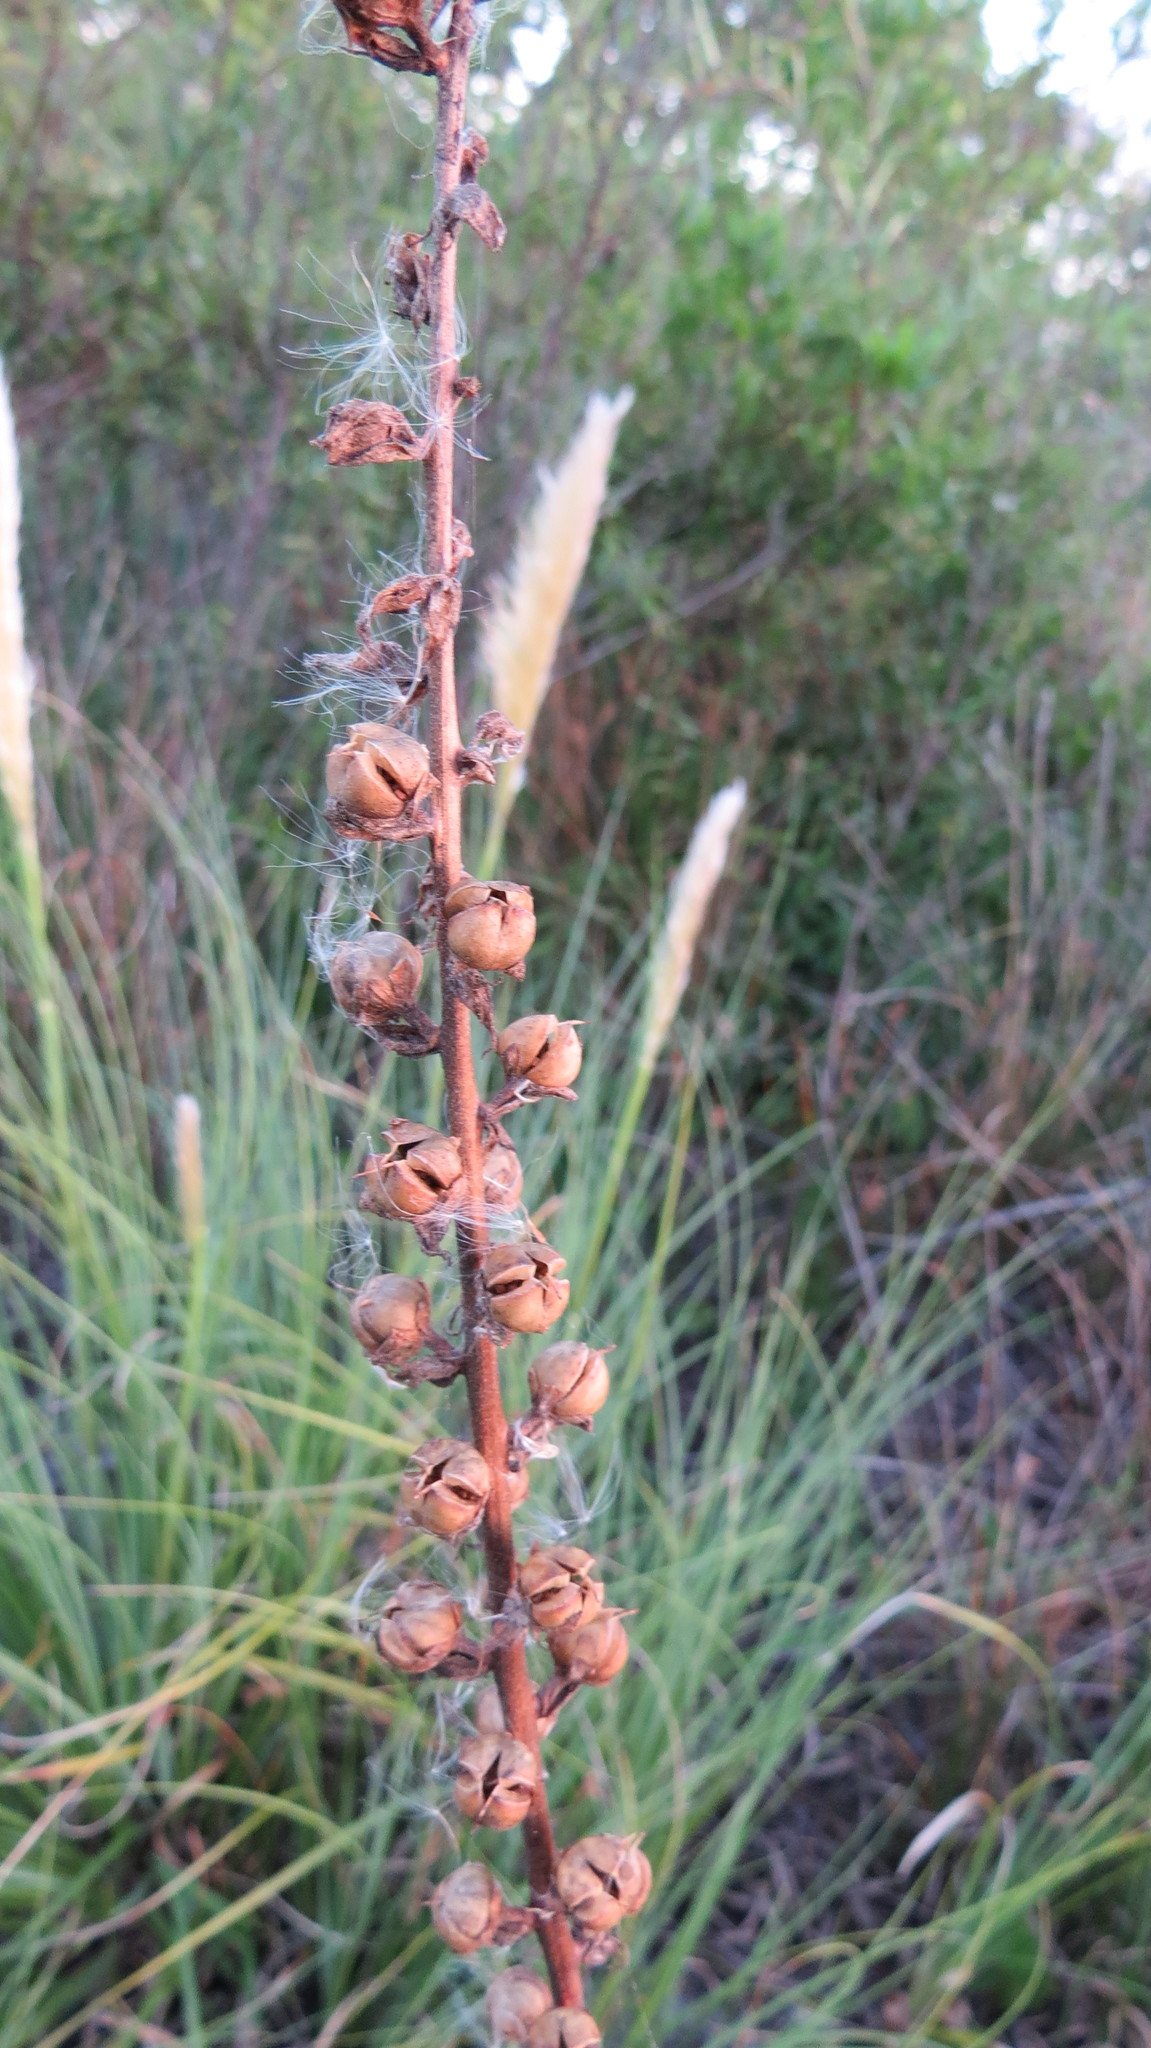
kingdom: Plantae
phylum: Tracheophyta
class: Magnoliopsida
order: Lamiales
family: Scrophulariaceae
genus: Verbascum
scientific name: Verbascum virgatum
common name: Twiggy mullein
